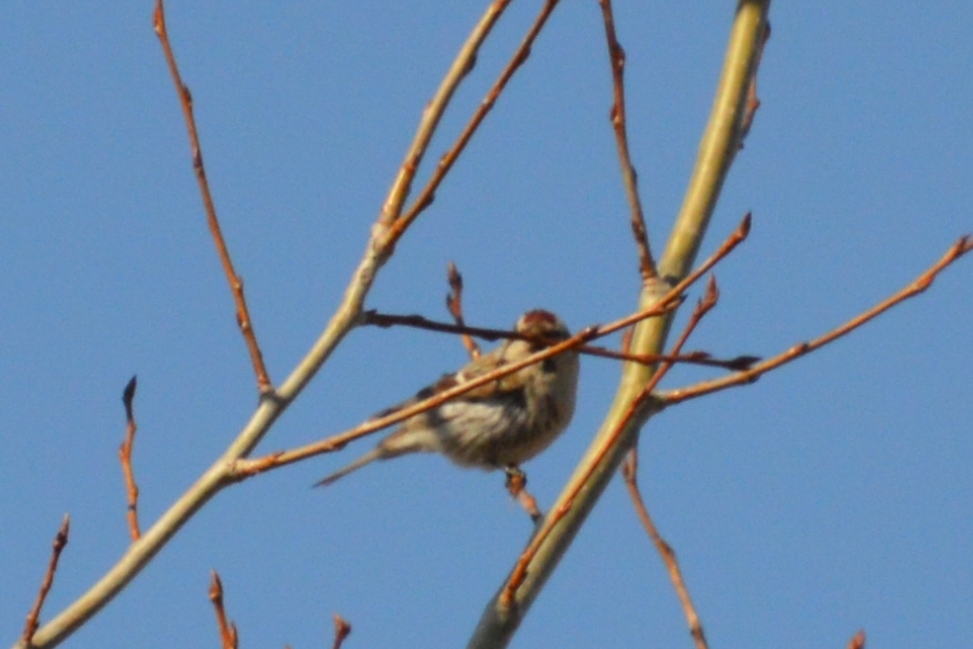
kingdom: Animalia
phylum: Chordata
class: Aves
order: Passeriformes
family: Fringillidae
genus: Acanthis
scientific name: Acanthis flammea
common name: Common redpoll
